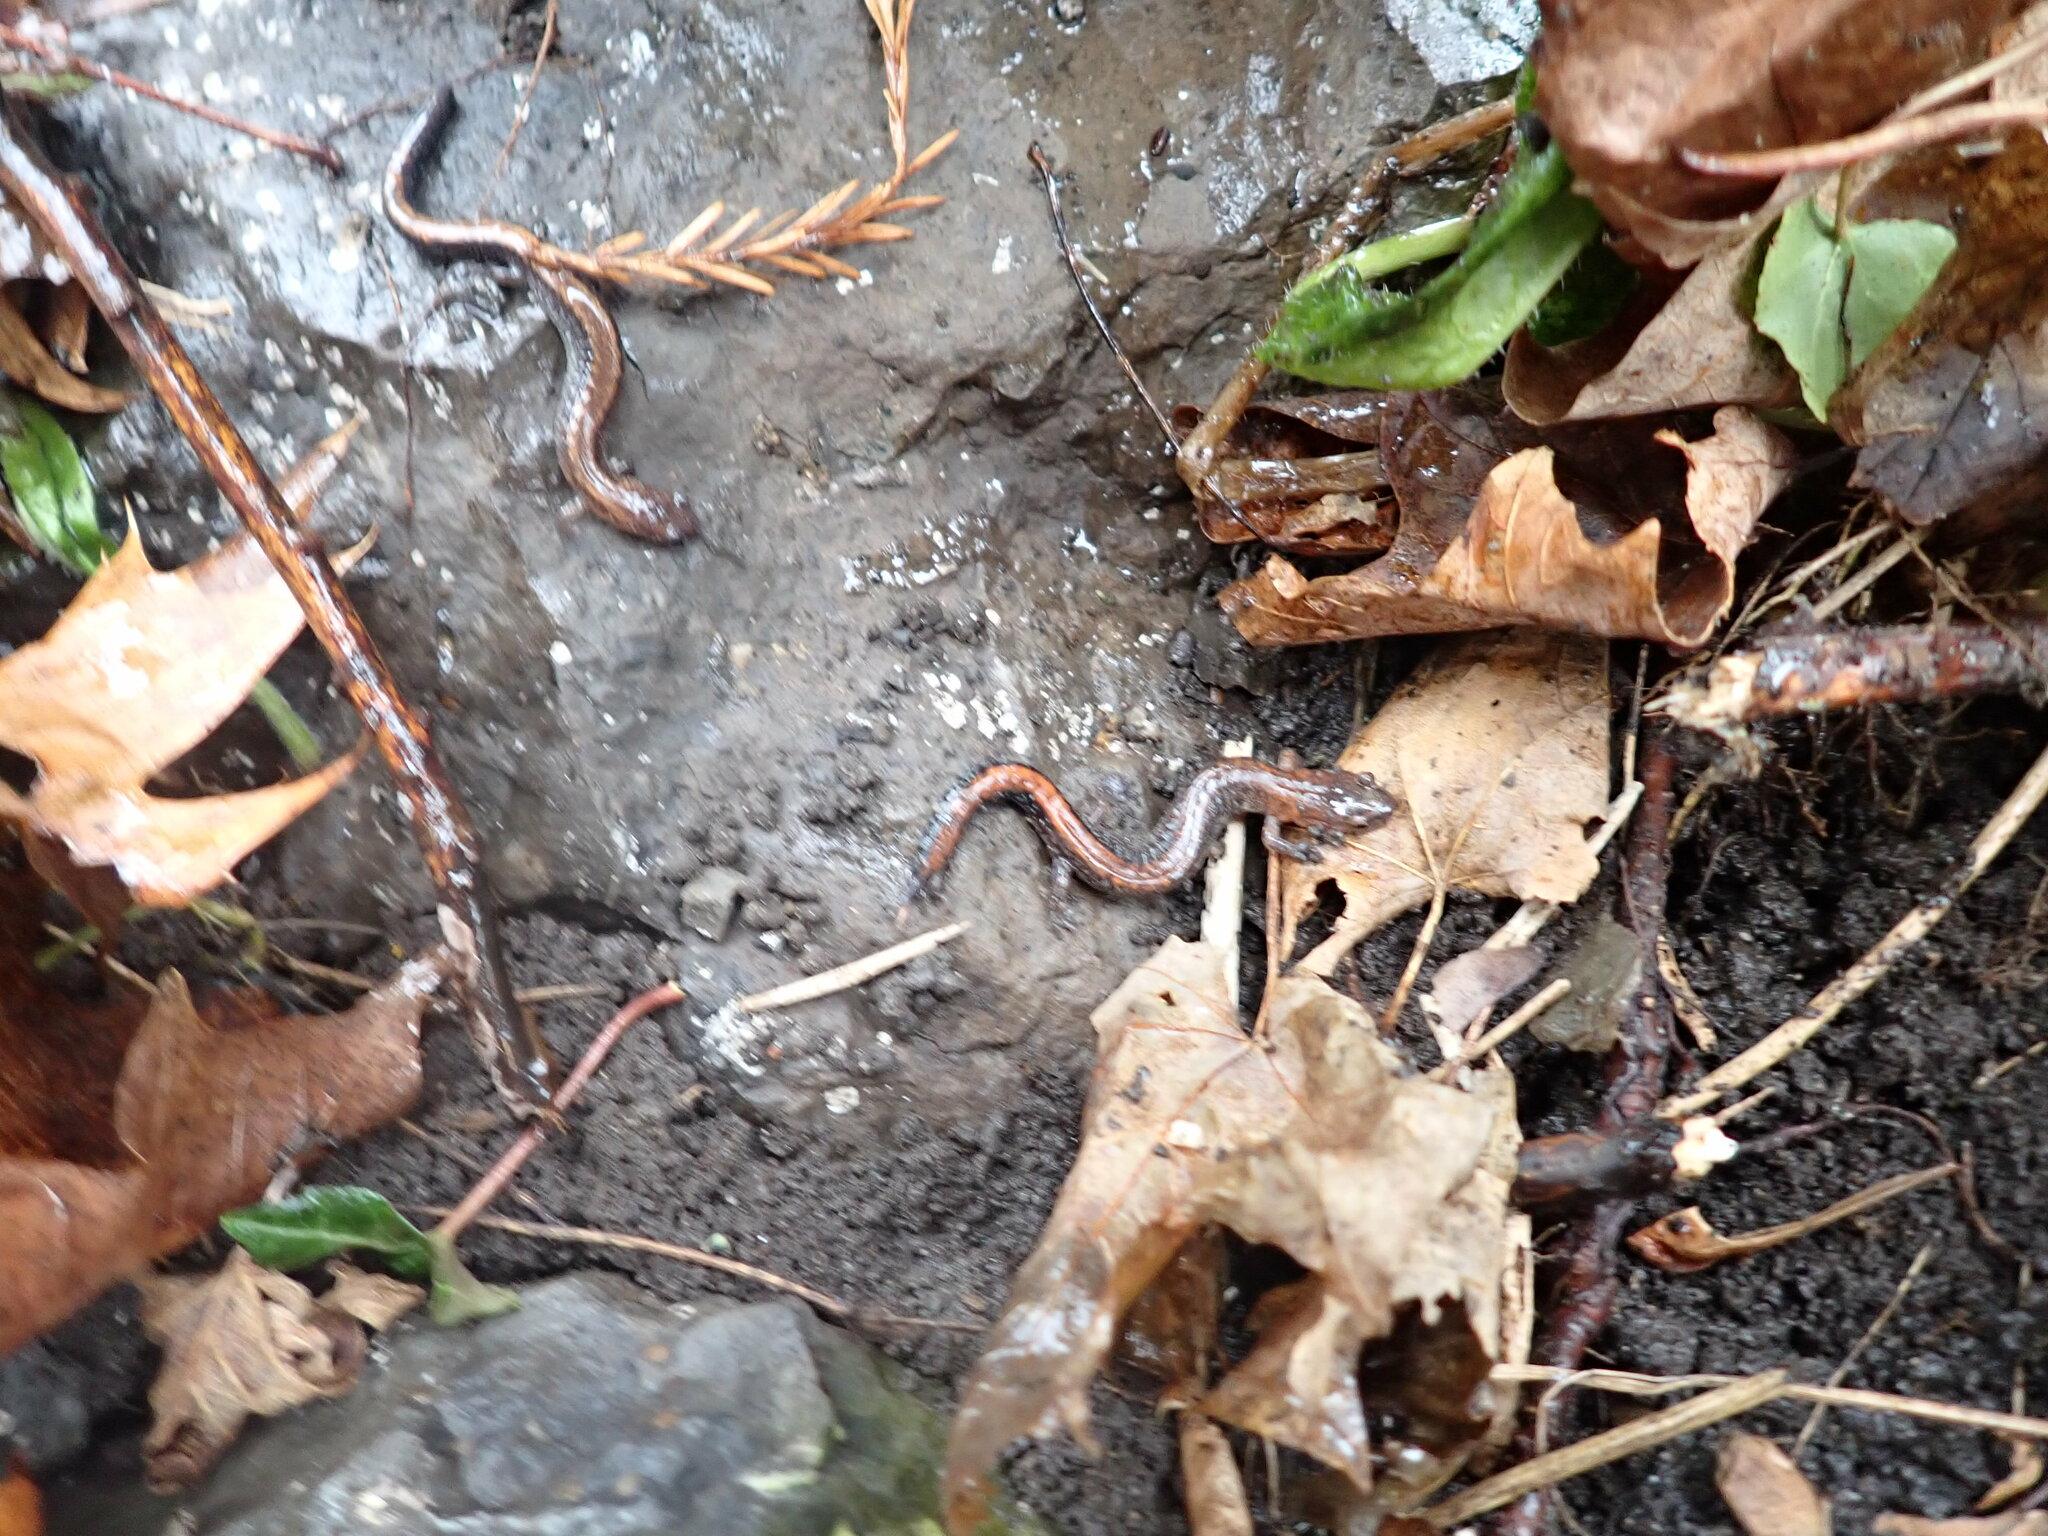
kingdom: Animalia
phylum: Chordata
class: Amphibia
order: Caudata
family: Plethodontidae
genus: Plethodon
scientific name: Plethodon cinereus
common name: Redback salamander
